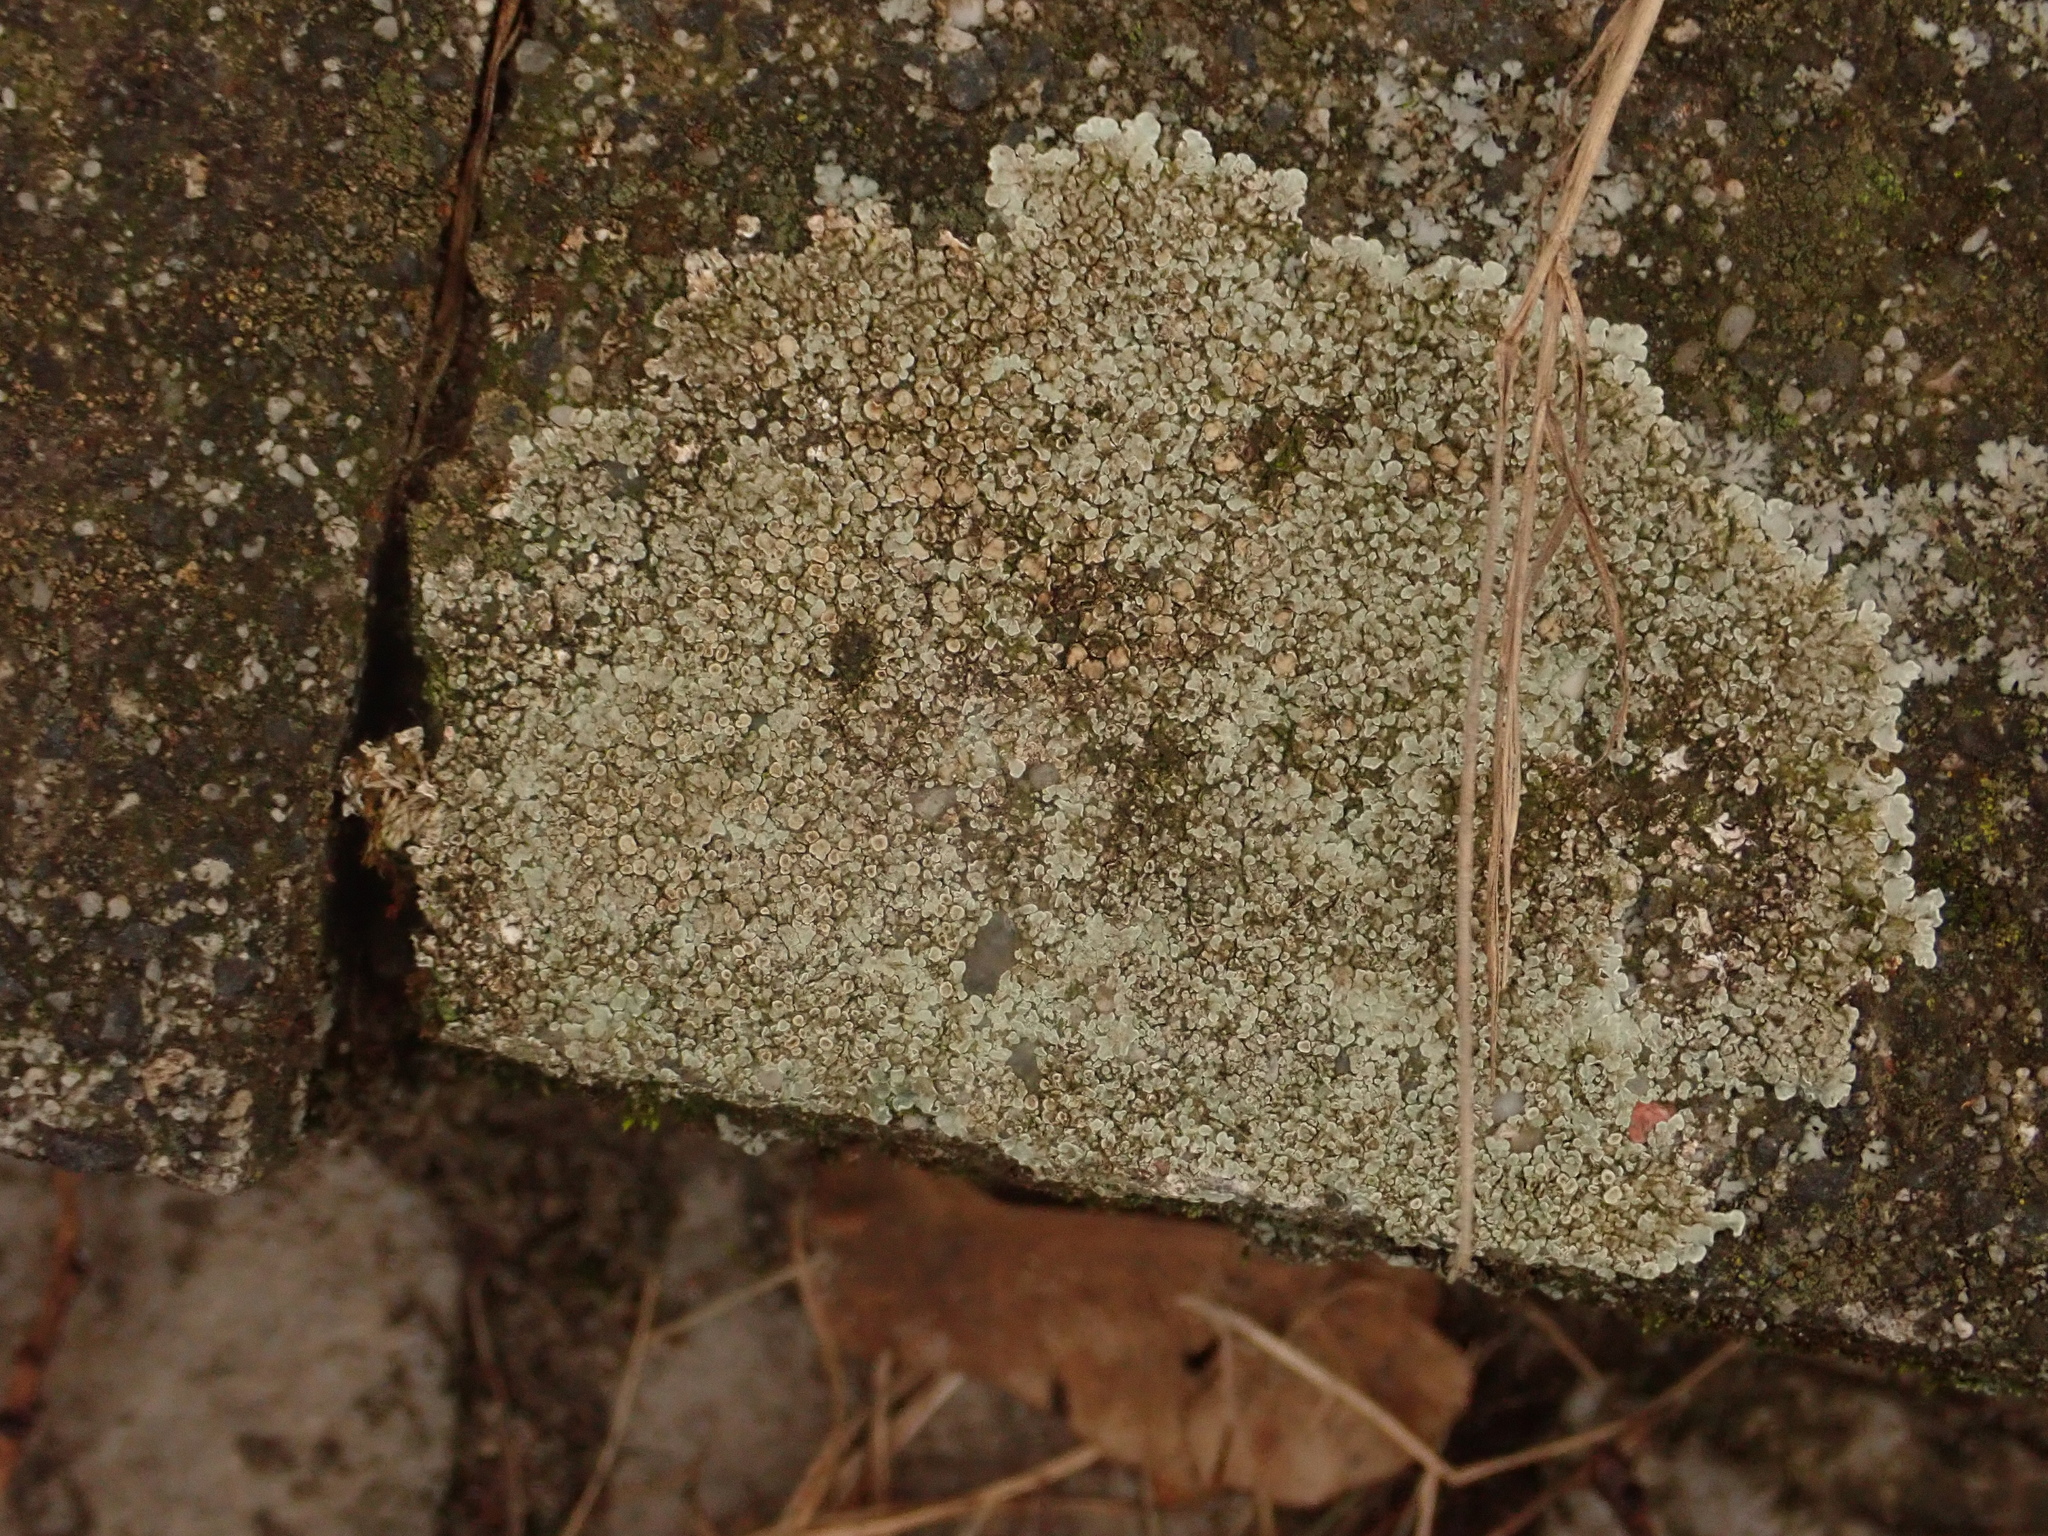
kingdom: Fungi
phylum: Ascomycota
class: Lecanoromycetes
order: Lecanorales
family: Lecanoraceae
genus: Protoparmeliopsis
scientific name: Protoparmeliopsis muralis
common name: Stonewall rim lichen
